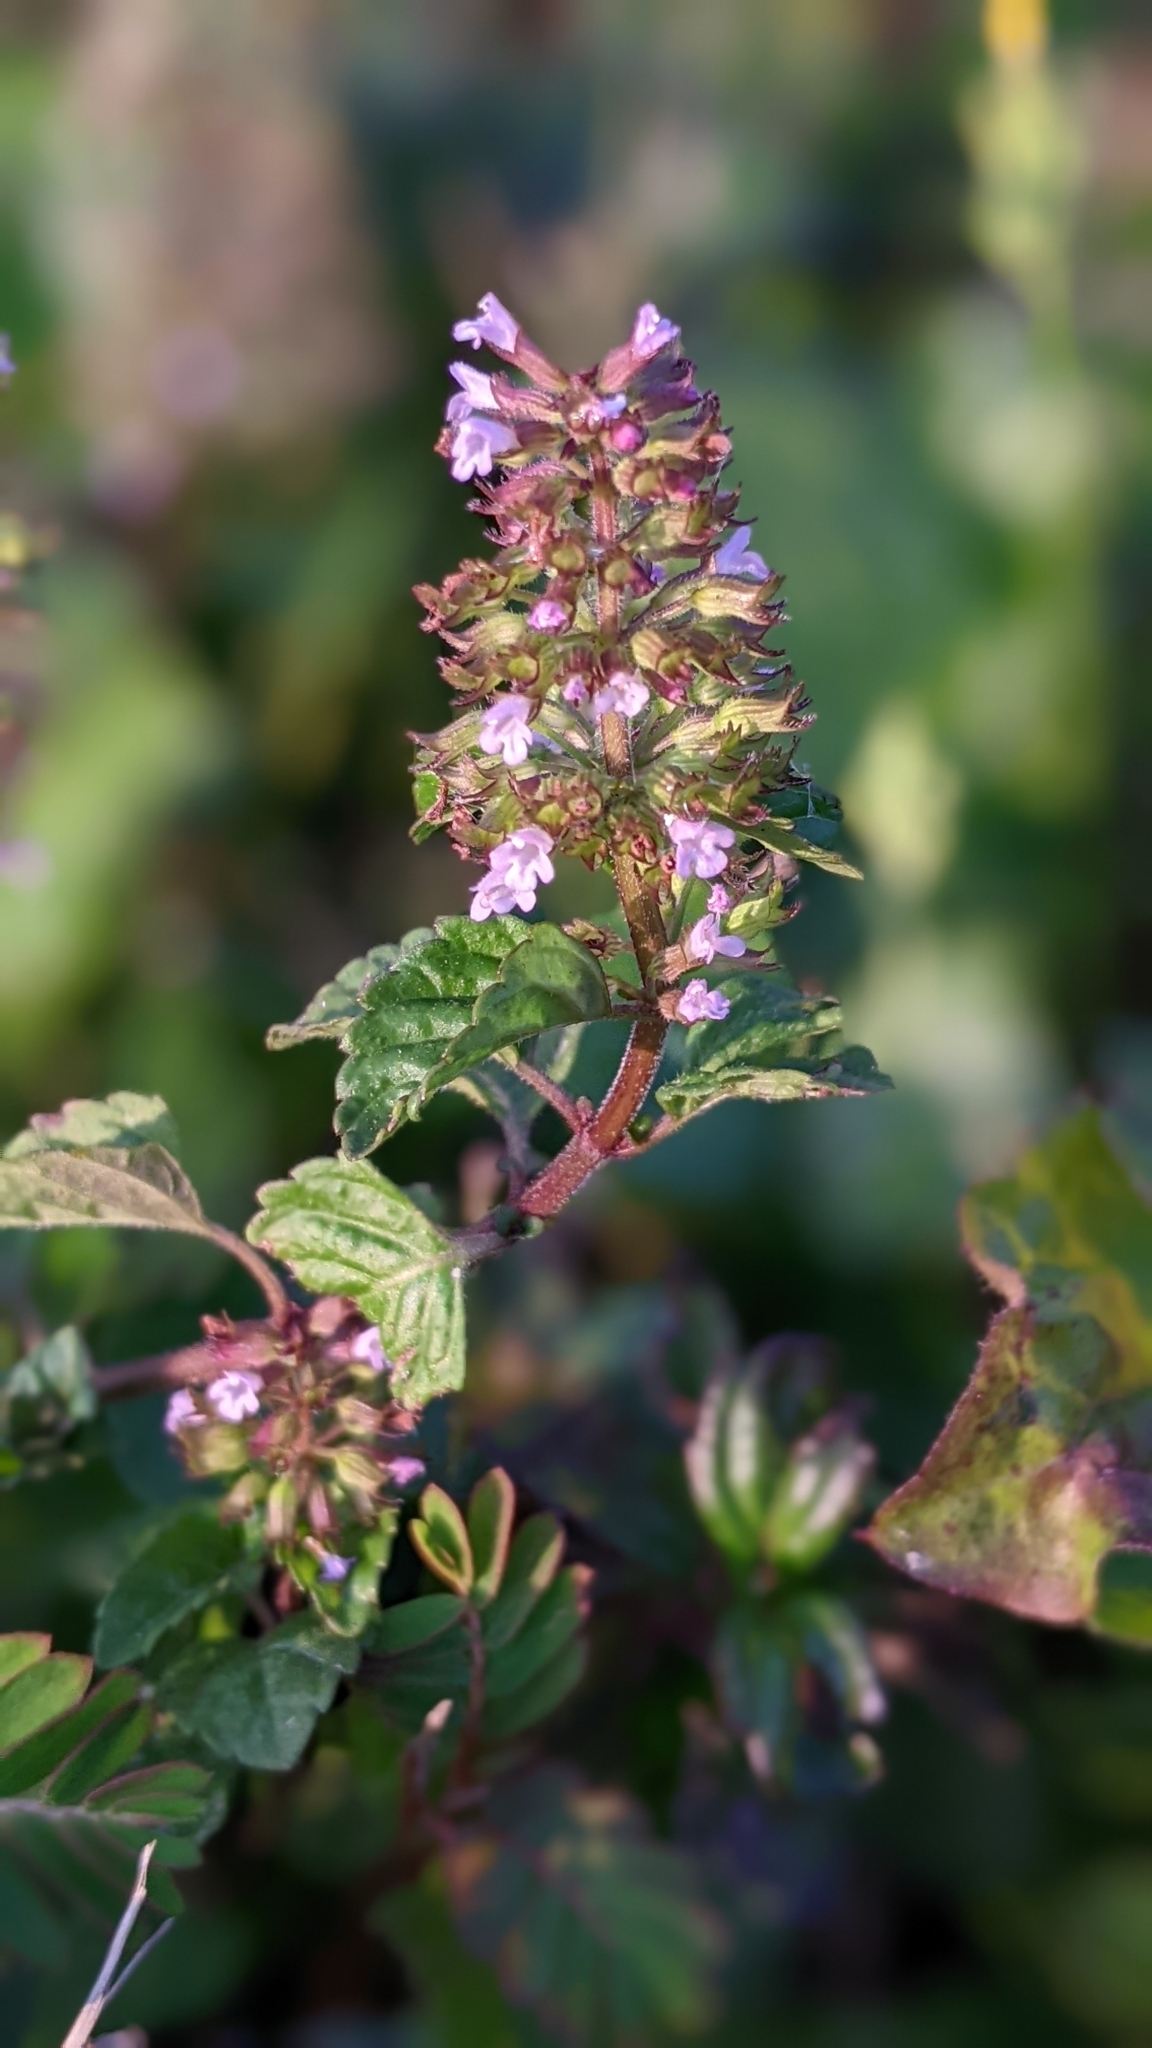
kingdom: Plantae
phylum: Tracheophyta
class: Magnoliopsida
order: Lamiales
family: Lamiaceae
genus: Clinopodium
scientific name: Clinopodium gracile
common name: Slender wild basil
